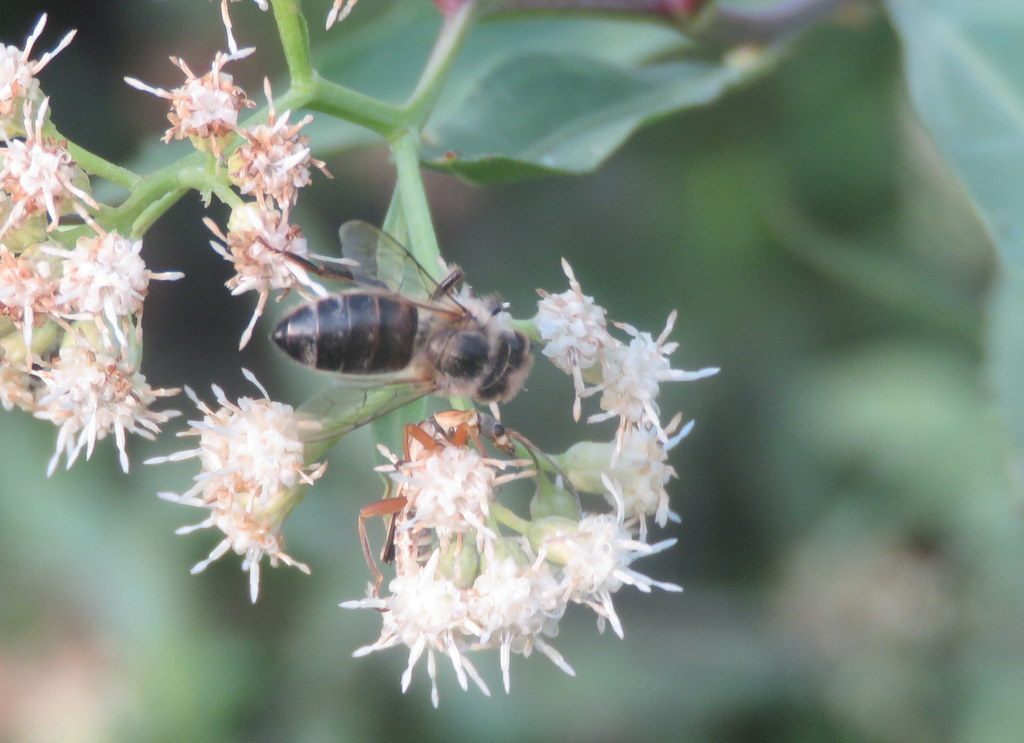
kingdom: Animalia
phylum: Arthropoda
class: Insecta
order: Hymenoptera
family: Apidae
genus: Apis
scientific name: Apis mellifera
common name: Honey bee
